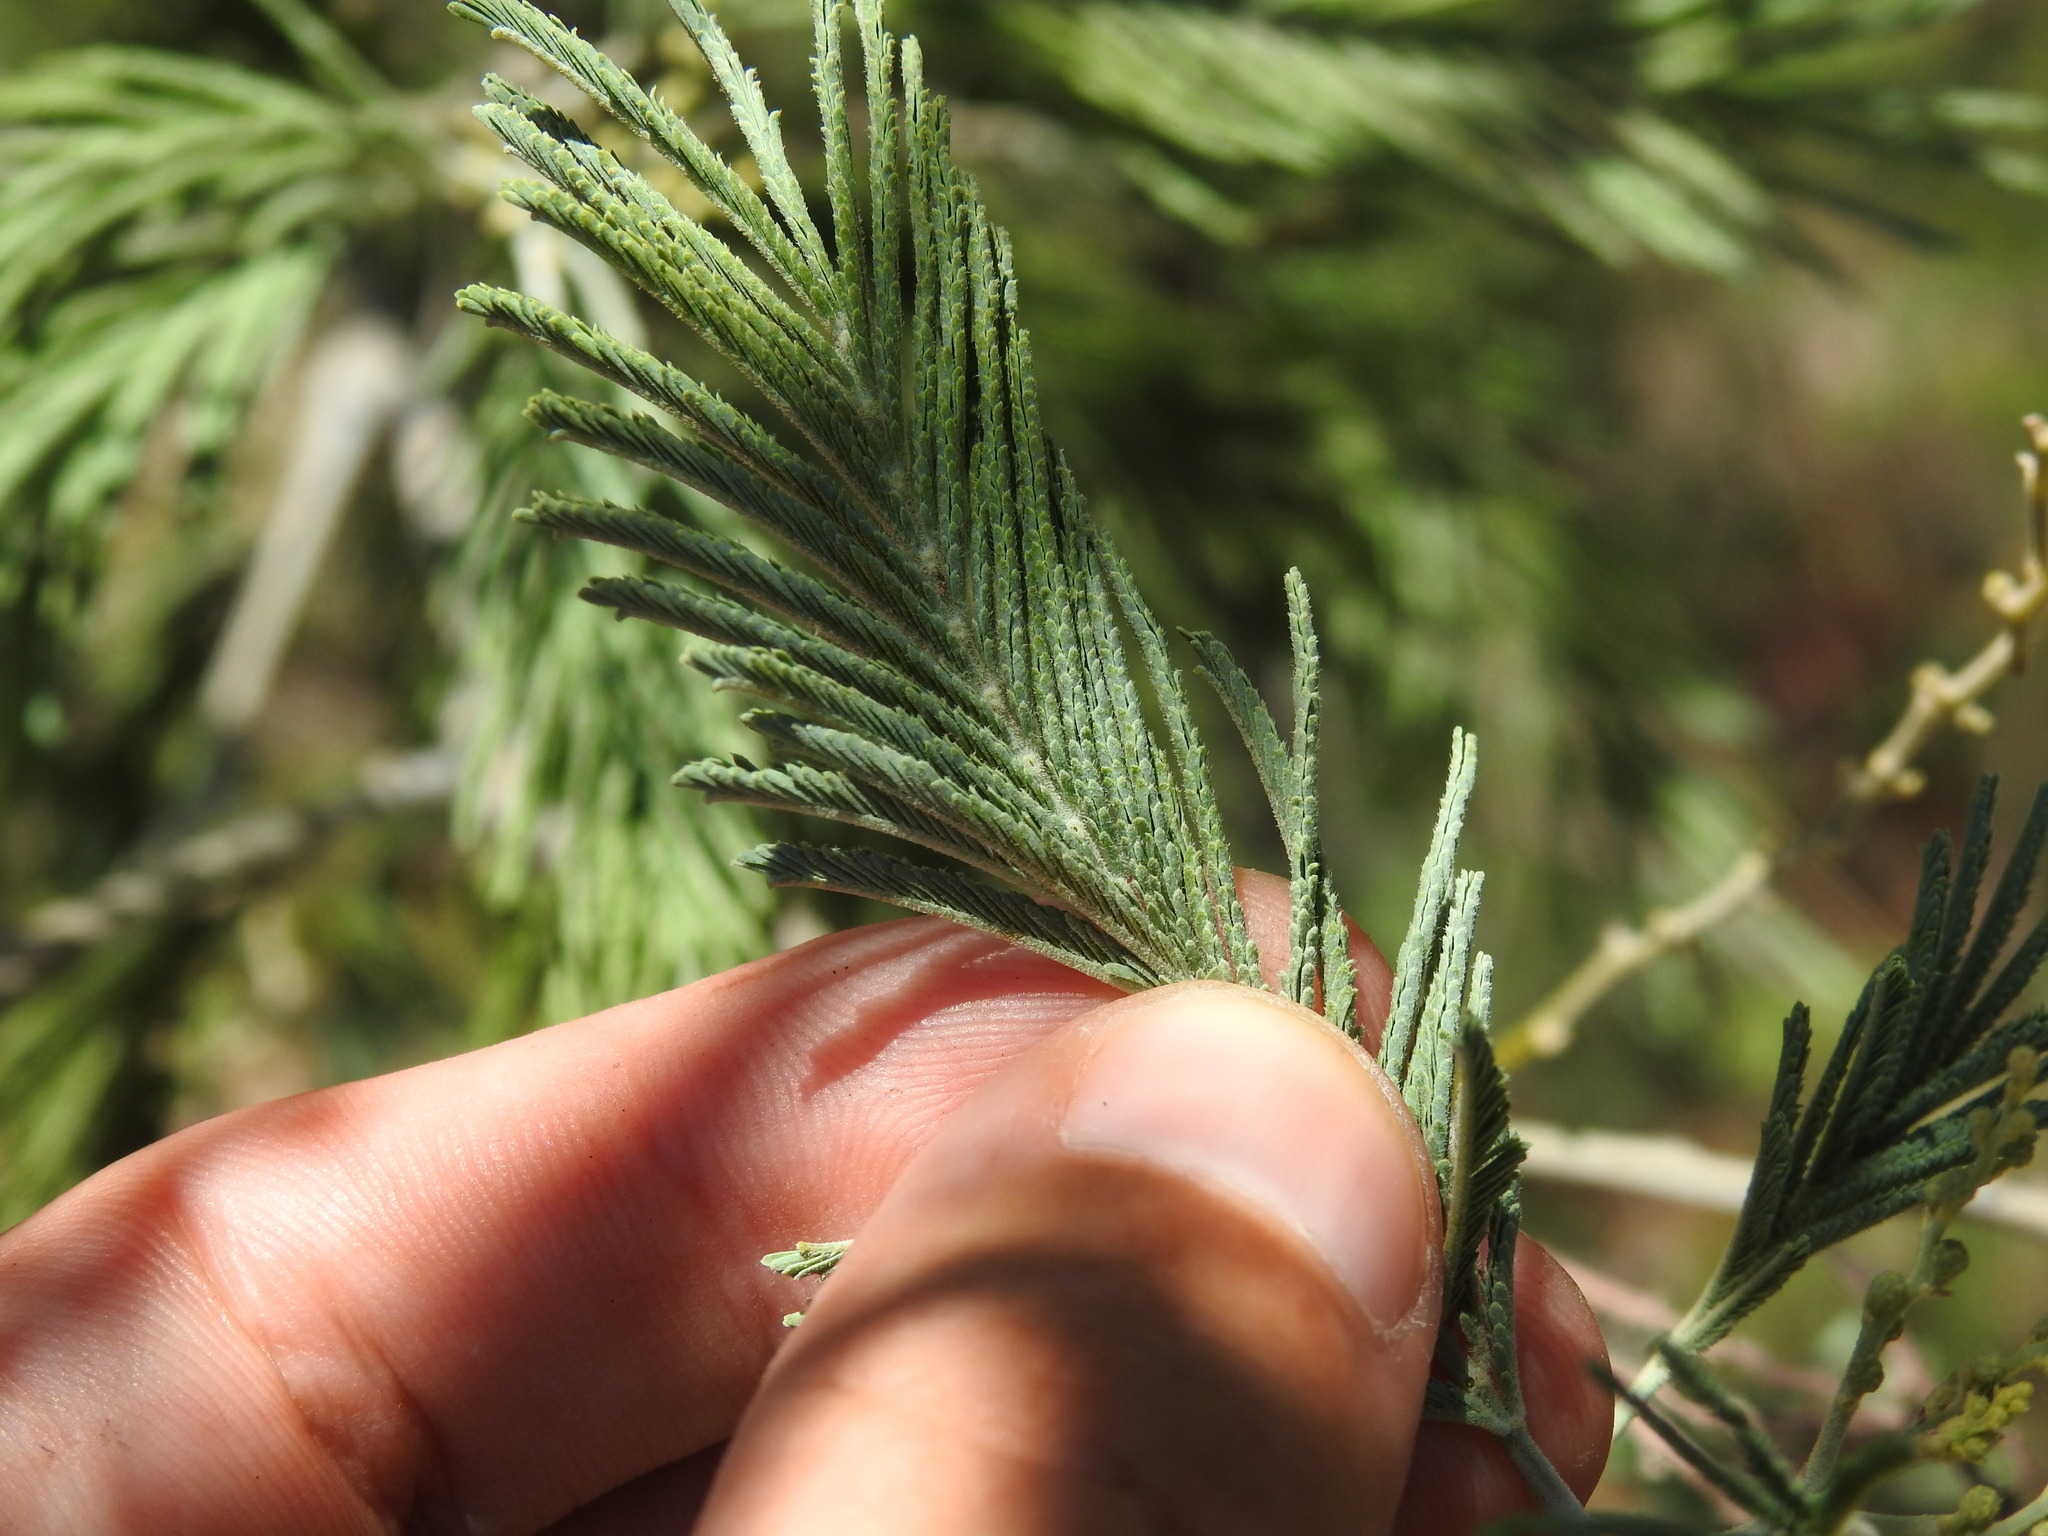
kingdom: Plantae
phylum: Tracheophyta
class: Magnoliopsida
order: Fabales
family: Fabaceae
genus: Acacia
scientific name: Acacia dealbata
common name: Silver wattle
